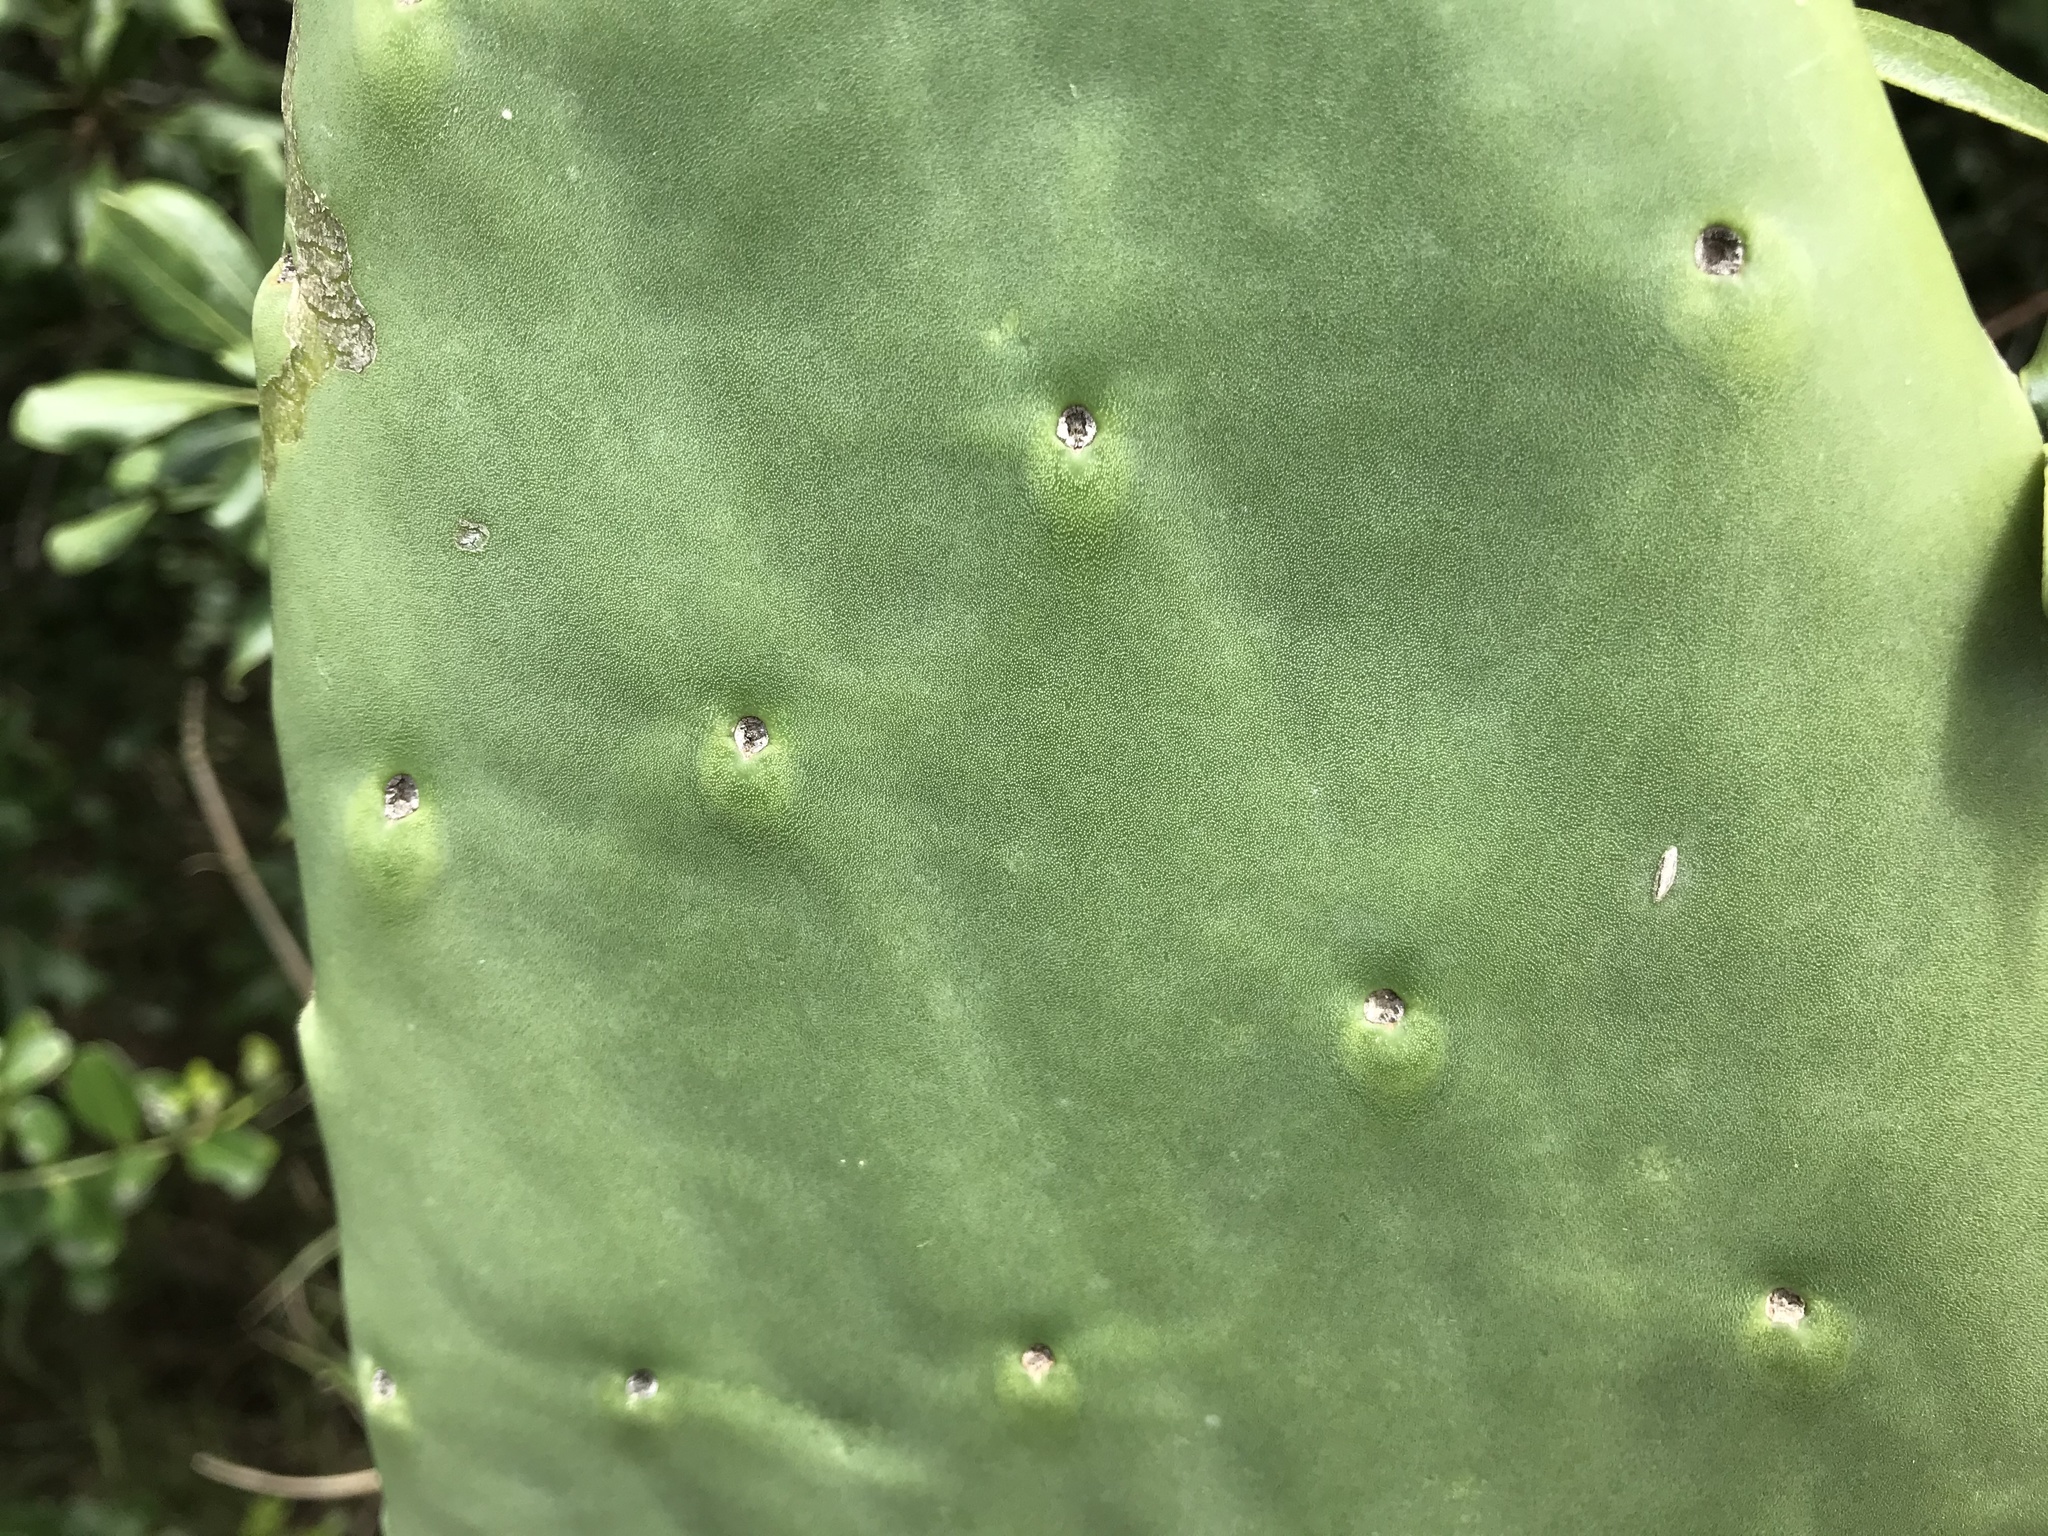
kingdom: Plantae
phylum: Tracheophyta
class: Magnoliopsida
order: Caryophyllales
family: Cactaceae
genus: Opuntia
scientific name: Opuntia ficus-indica
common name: Barbary fig
